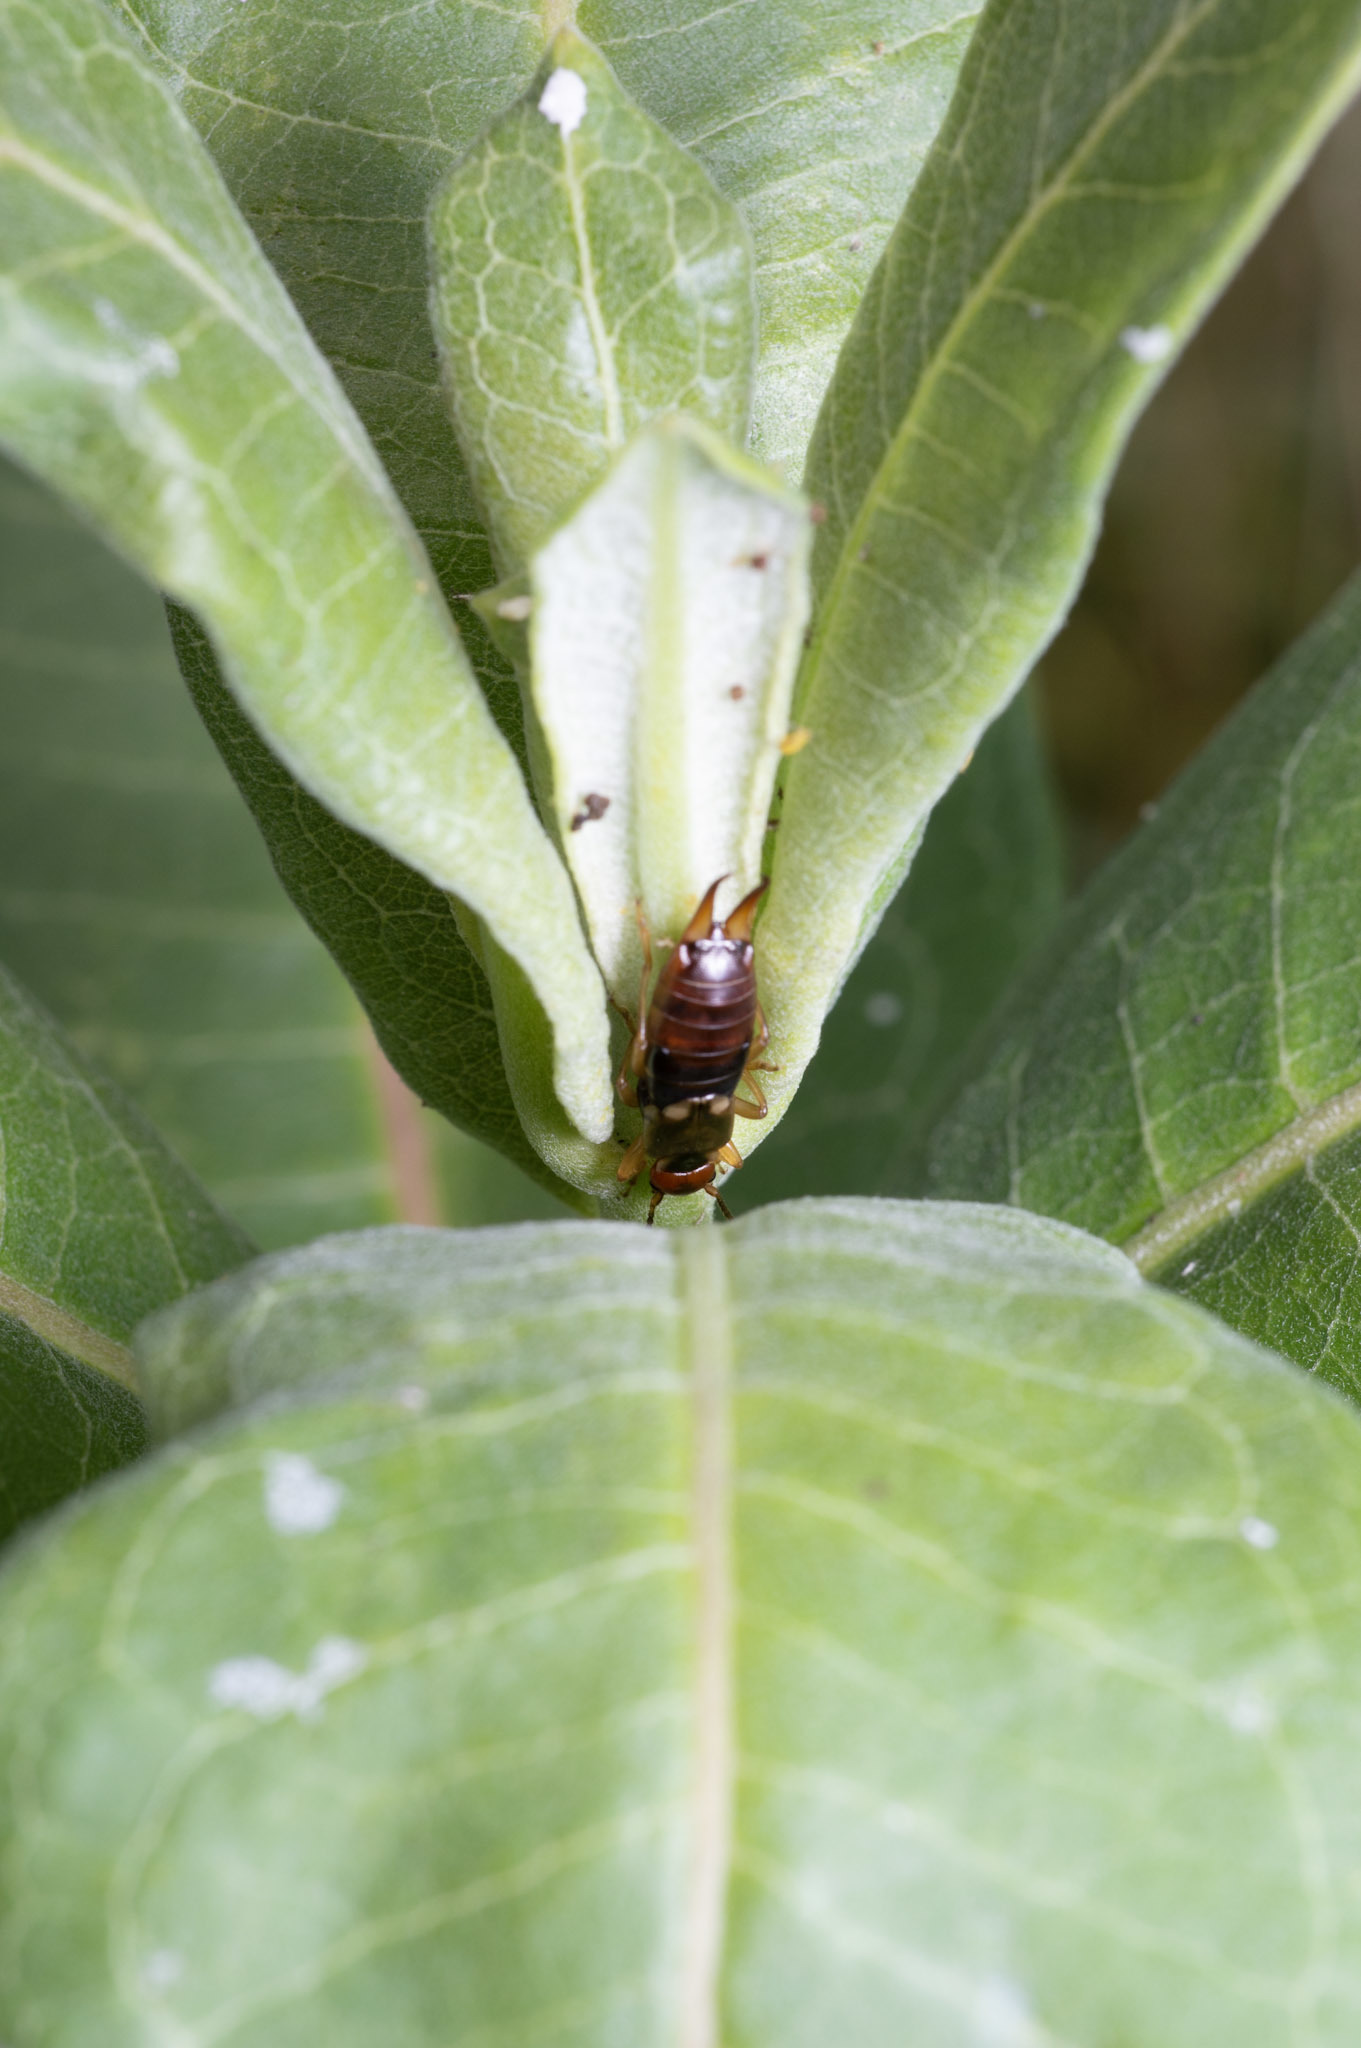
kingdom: Animalia
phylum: Arthropoda
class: Insecta
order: Dermaptera
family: Forficulidae
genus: Forficula
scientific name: Forficula
